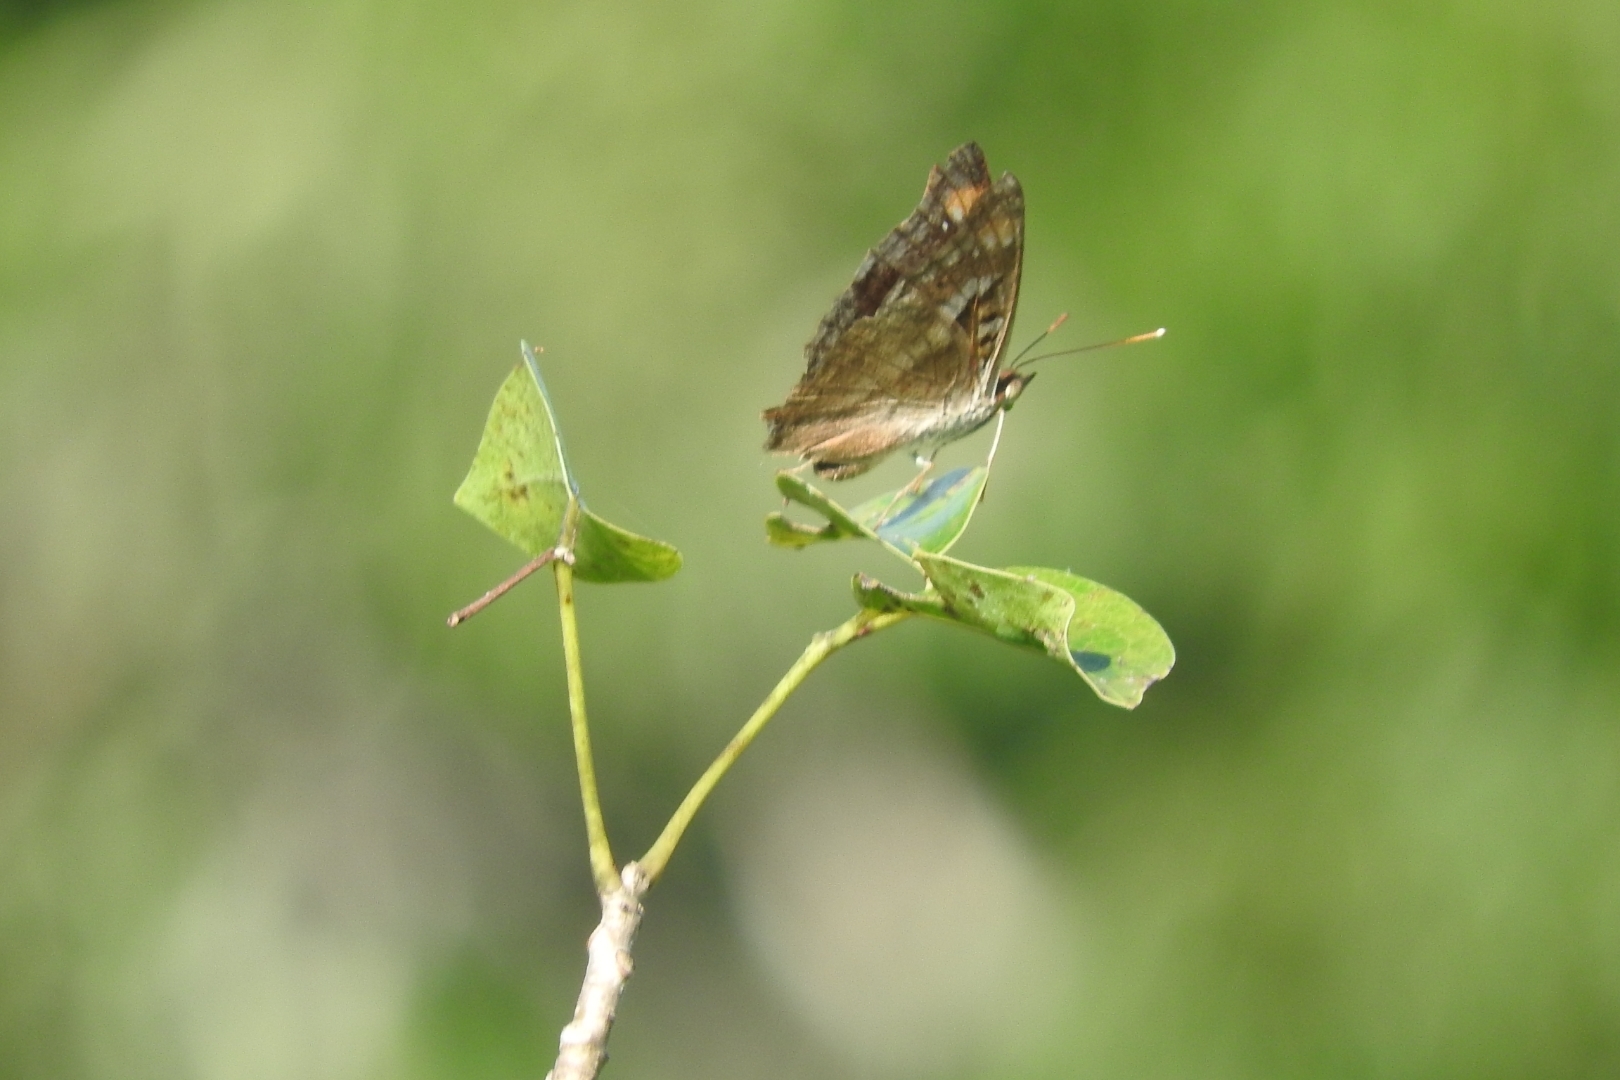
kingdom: Animalia
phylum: Arthropoda
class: Insecta
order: Lepidoptera
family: Nymphalidae
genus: Doxocopa
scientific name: Doxocopa pavonii
